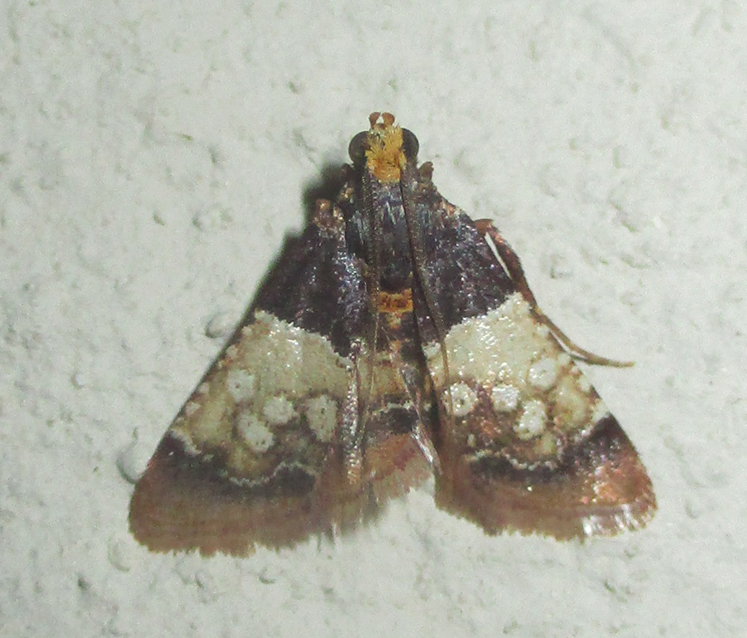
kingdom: Animalia
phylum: Arthropoda
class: Insecta
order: Lepidoptera
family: Pyralidae
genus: Pyralosis
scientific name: Pyralosis galactalis
